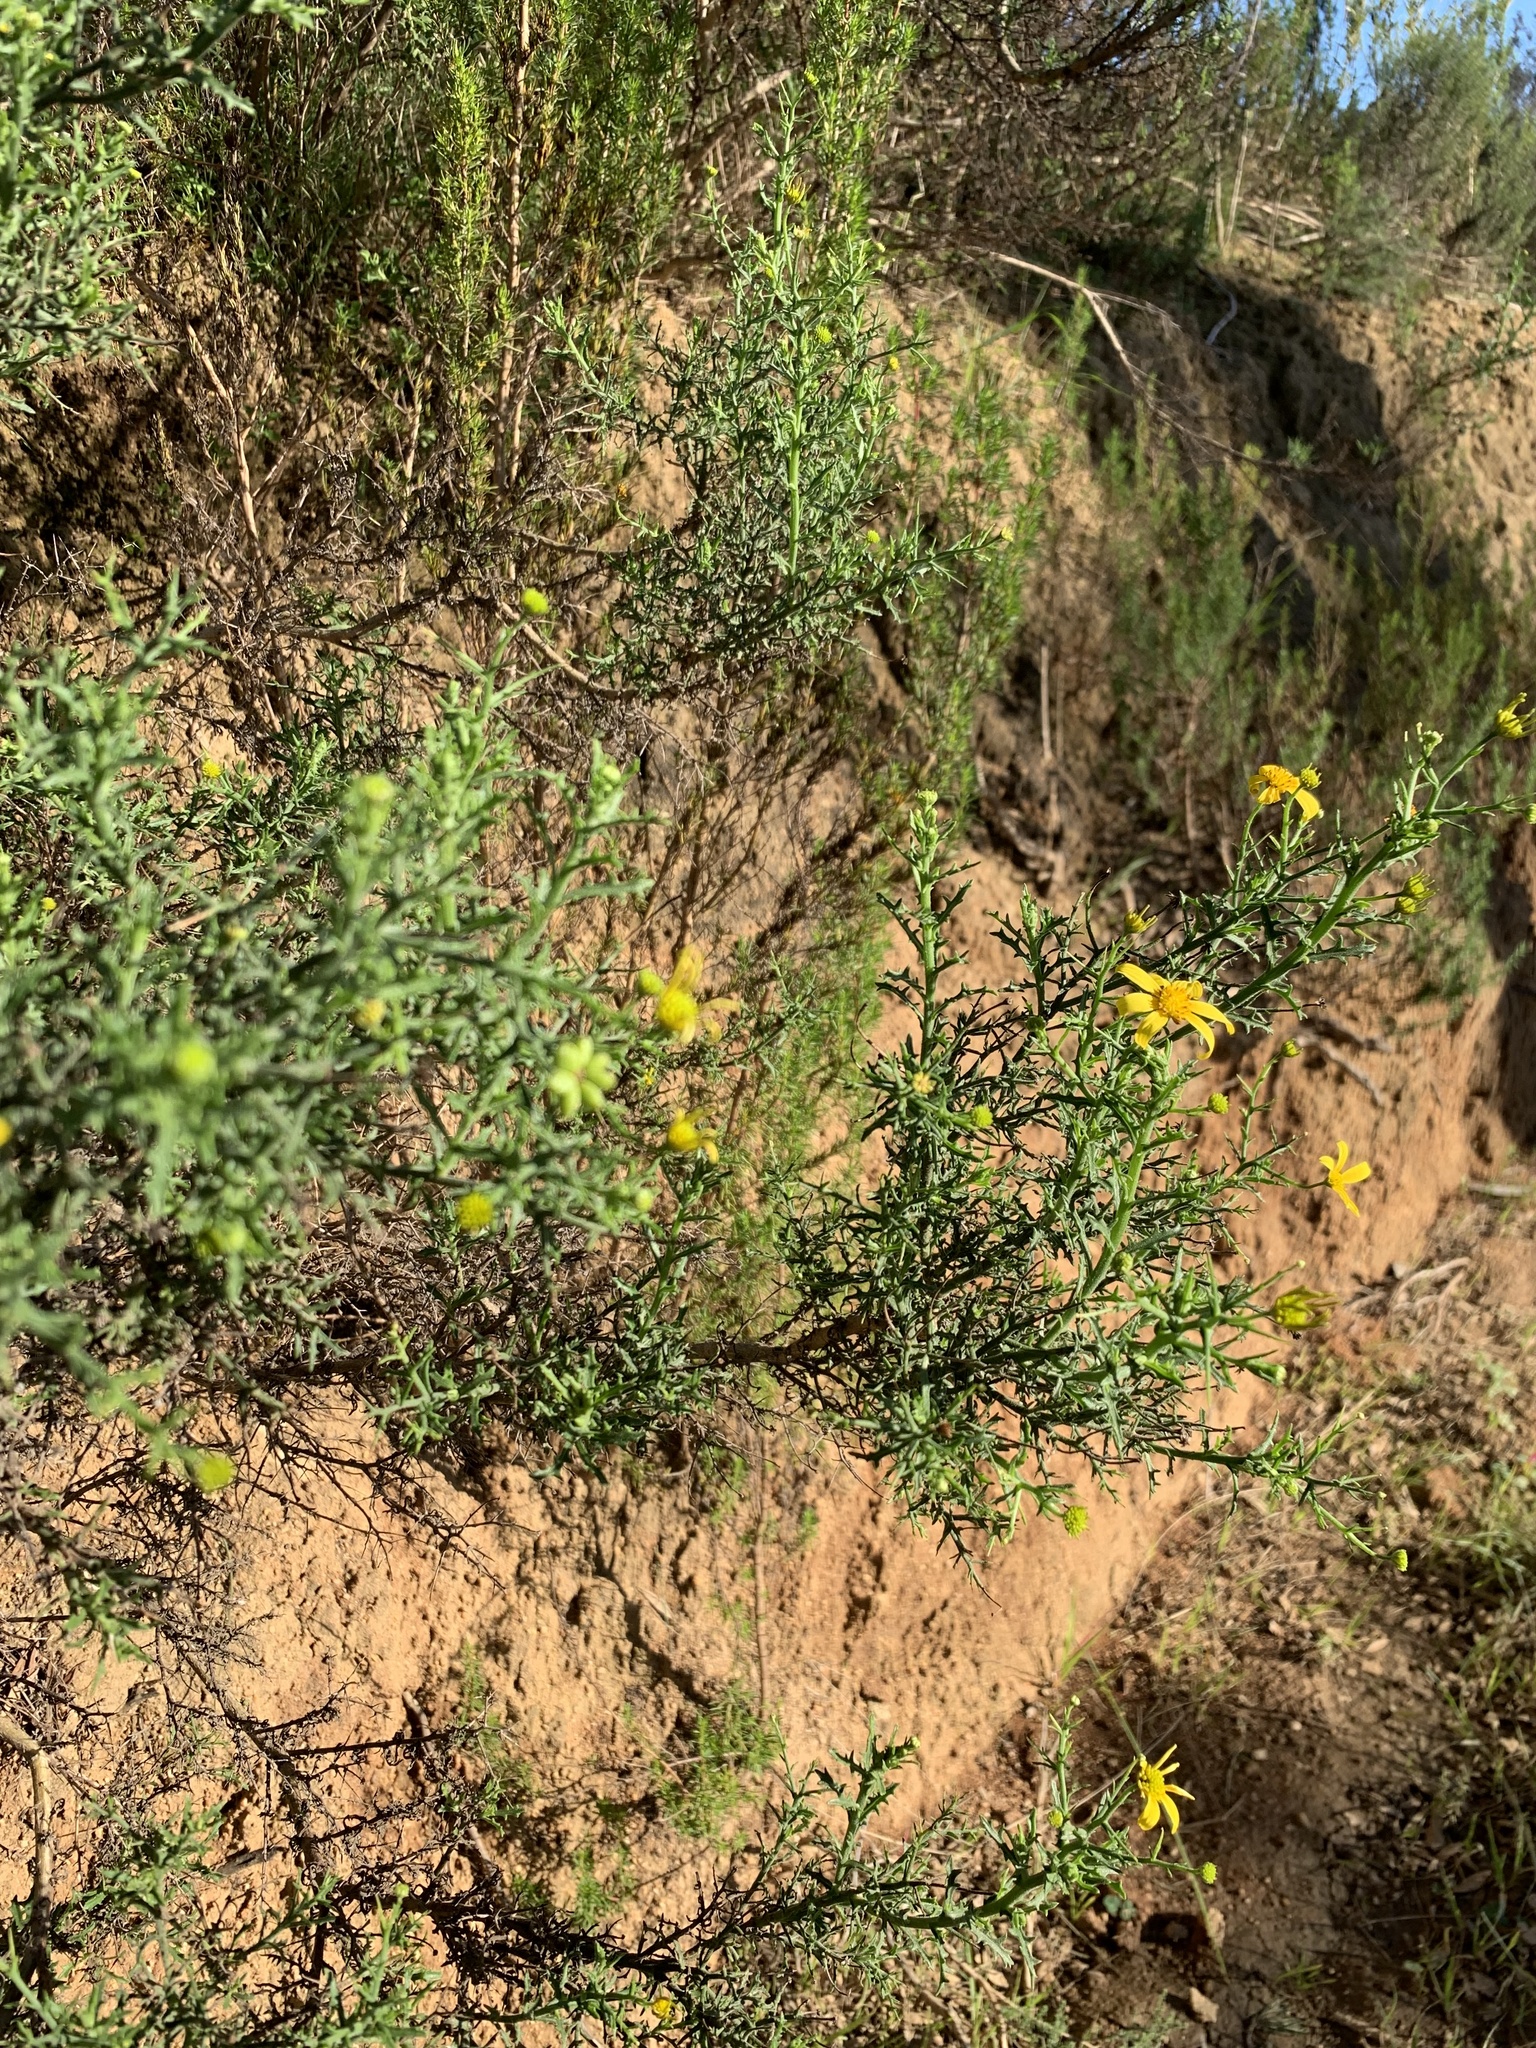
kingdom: Plantae
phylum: Tracheophyta
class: Magnoliopsida
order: Asterales
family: Asteraceae
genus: Osteospermum
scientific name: Osteospermum spinosum
